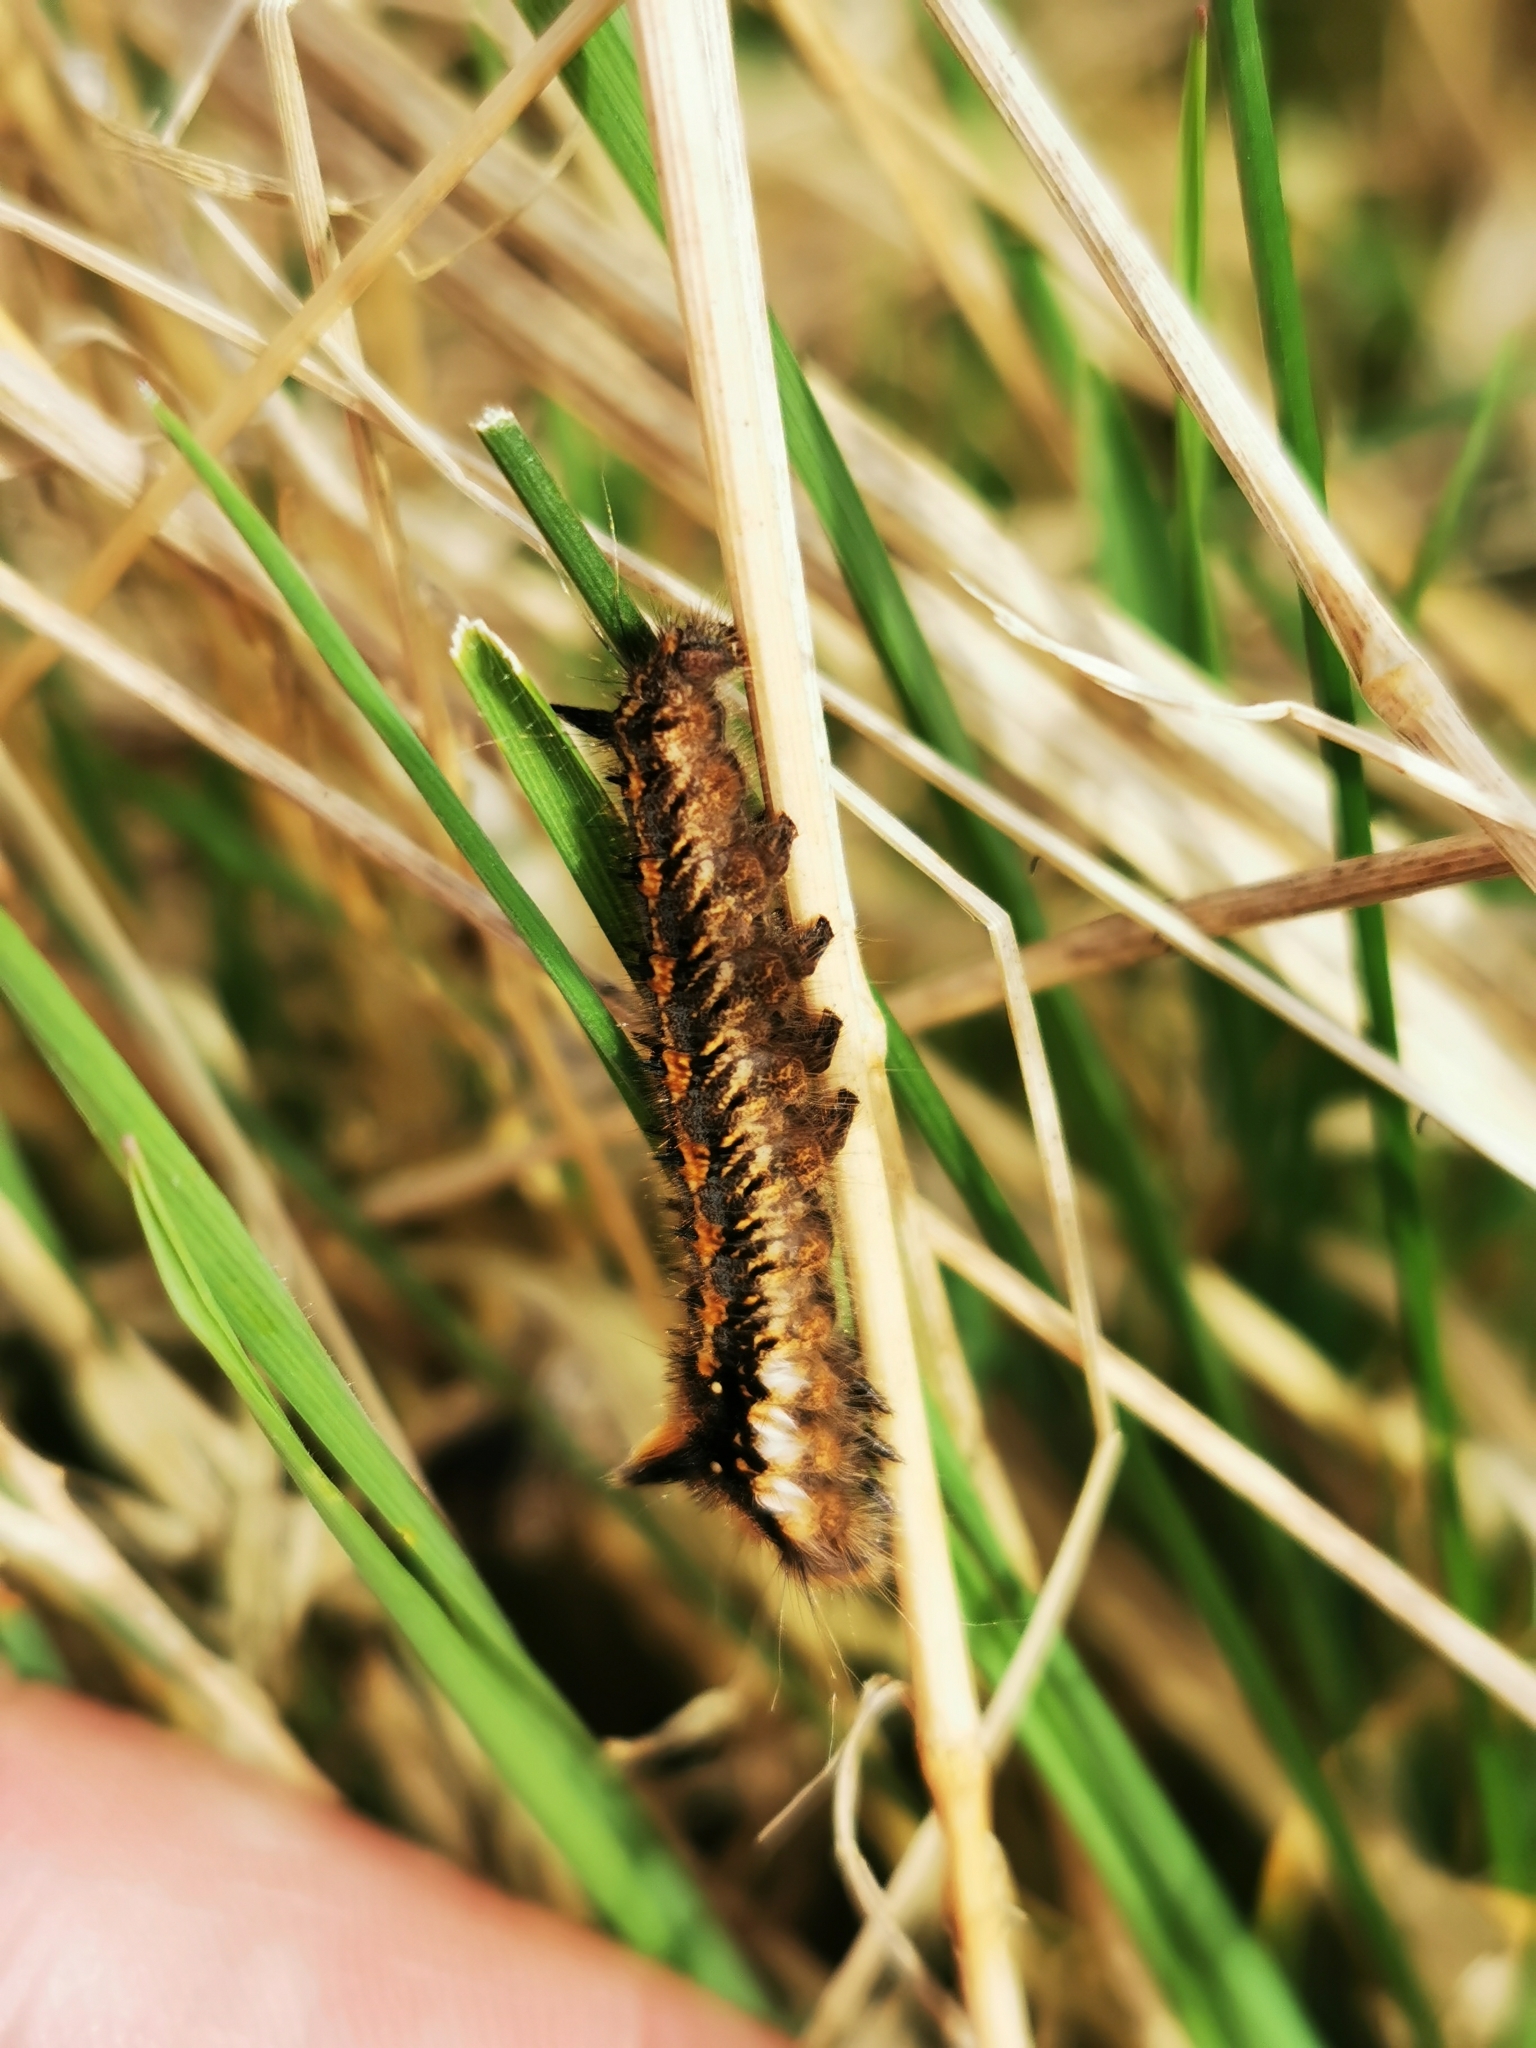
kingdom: Animalia
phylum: Arthropoda
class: Insecta
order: Lepidoptera
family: Lasiocampidae
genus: Euthrix
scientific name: Euthrix potatoria
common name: Drinker
